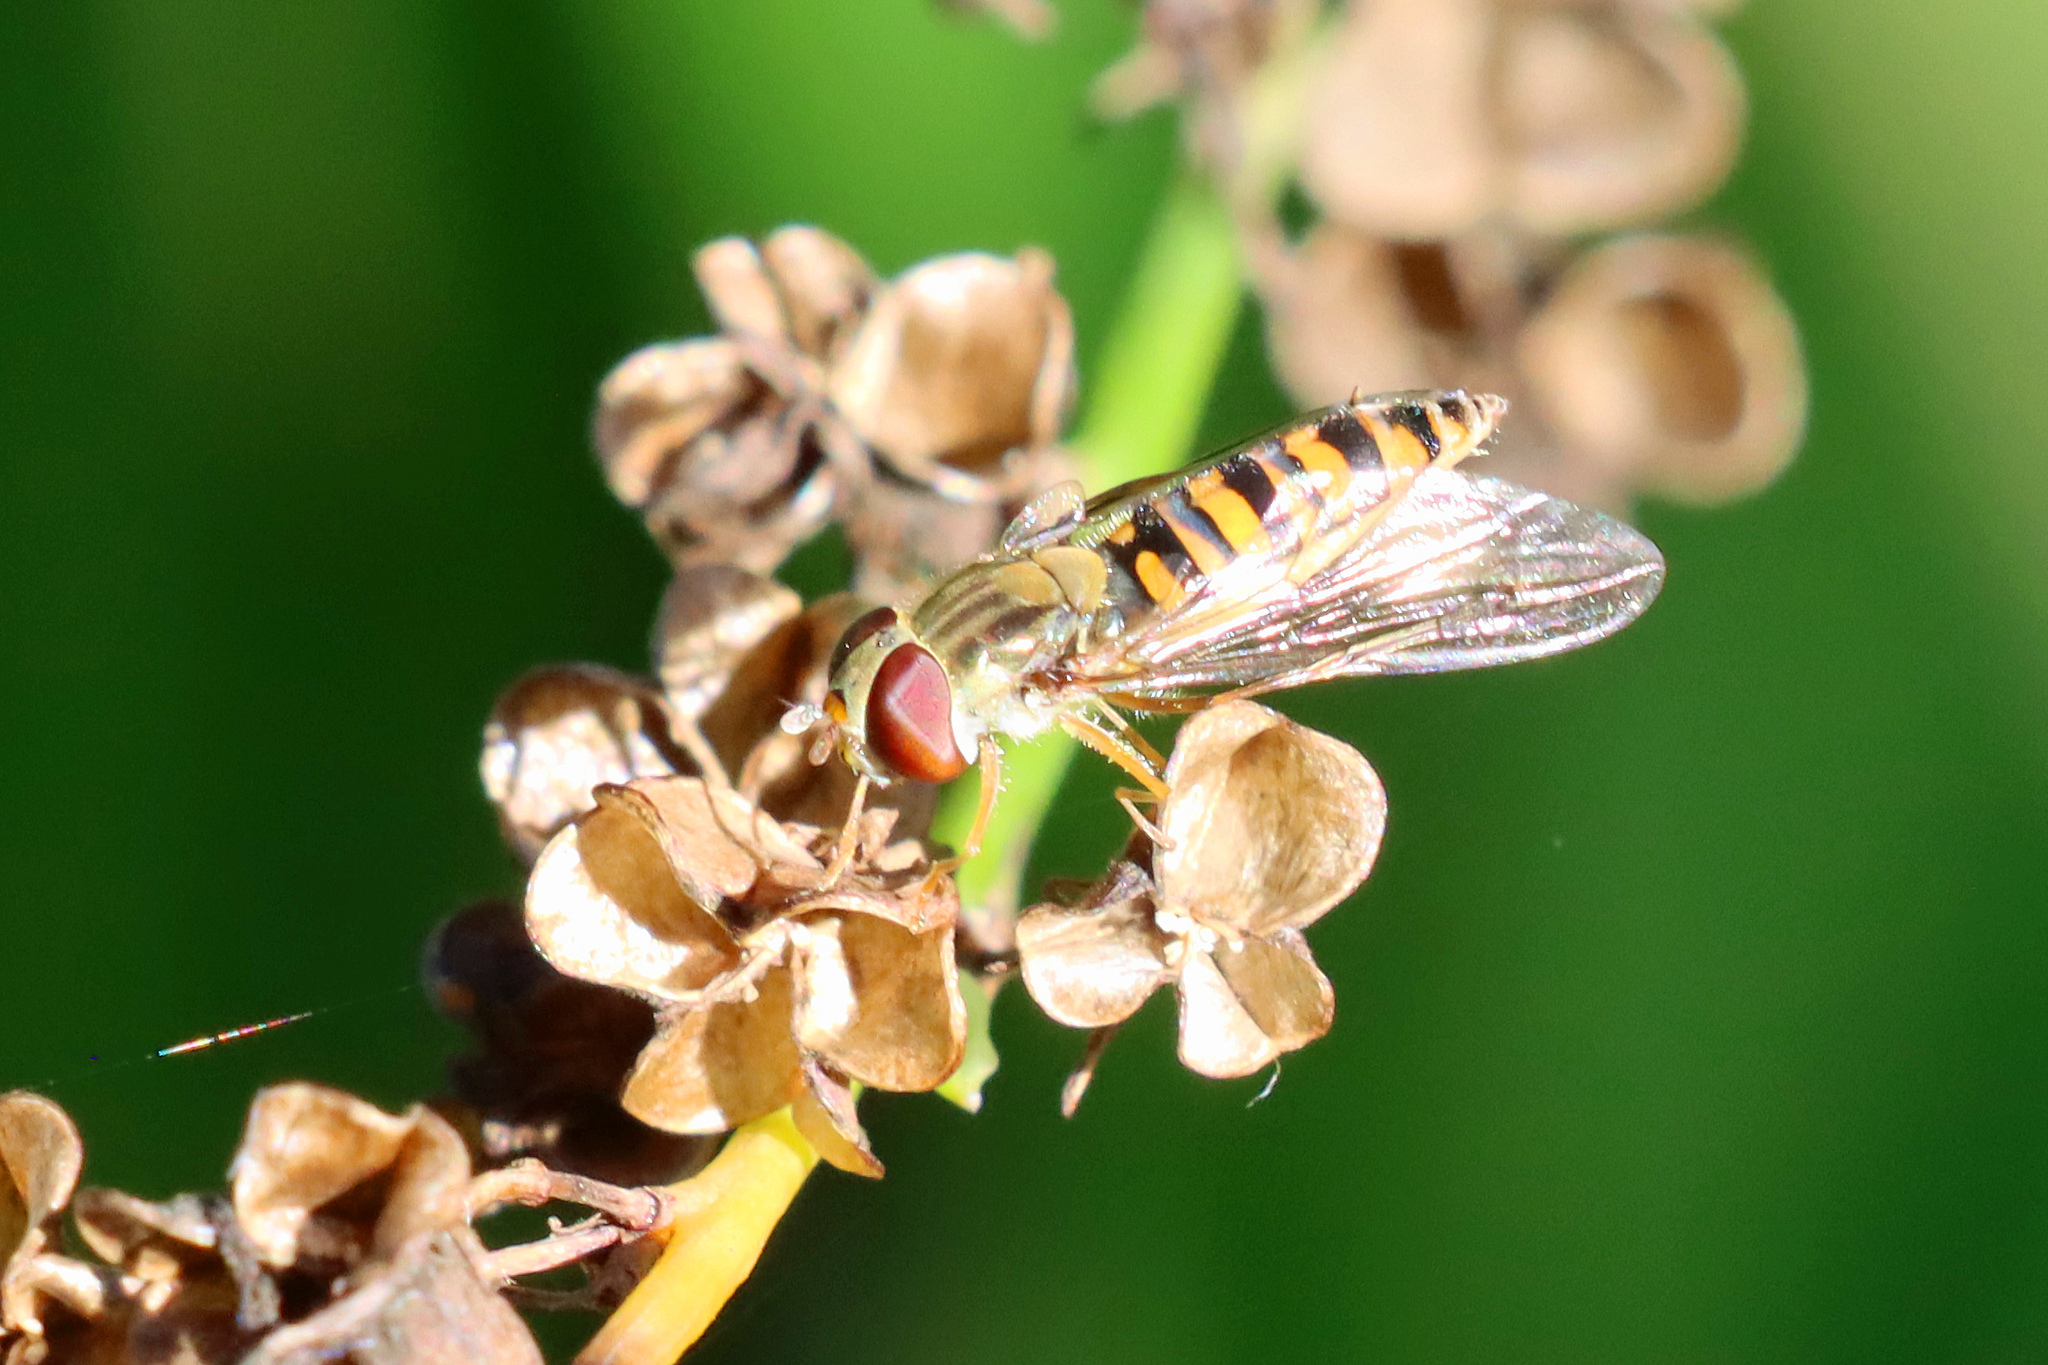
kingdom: Animalia
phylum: Arthropoda
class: Insecta
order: Diptera
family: Syrphidae
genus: Episyrphus
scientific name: Episyrphus balteatus
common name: Marmalade hoverfly
